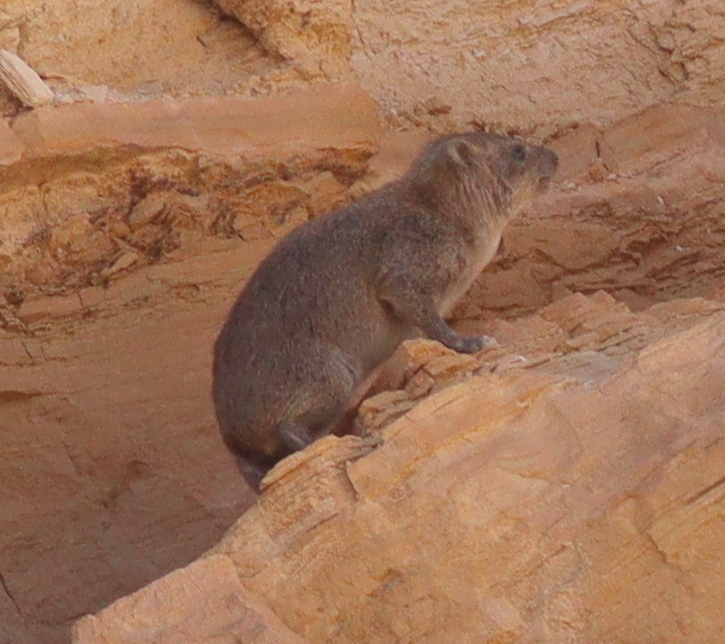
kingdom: Animalia
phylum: Chordata
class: Mammalia
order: Hyracoidea
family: Procaviidae
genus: Procavia
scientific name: Procavia capensis
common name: Rock hyrax
